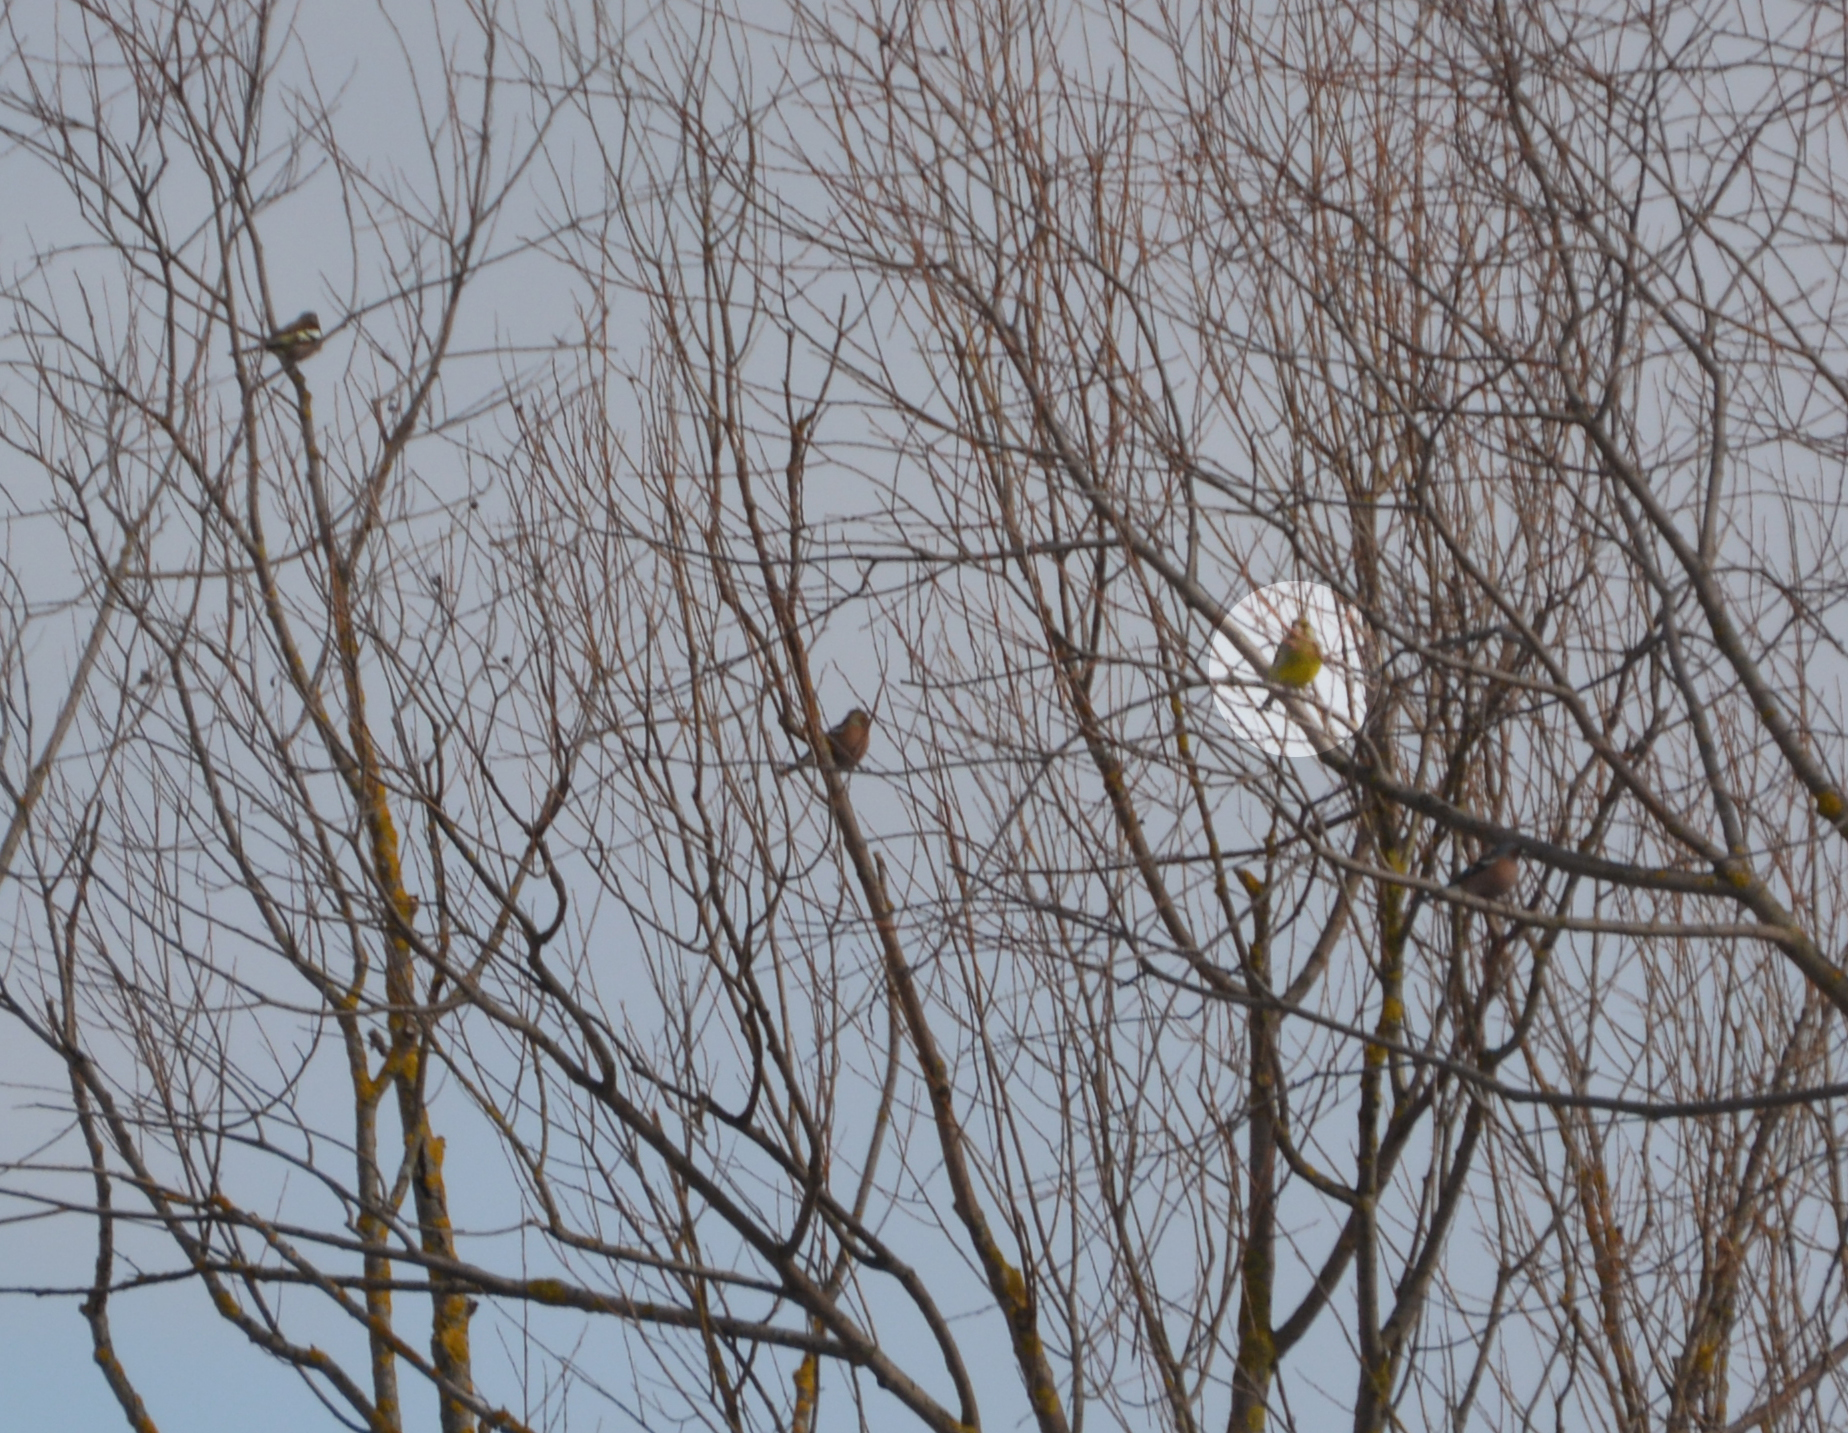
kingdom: Plantae
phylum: Tracheophyta
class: Liliopsida
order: Poales
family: Poaceae
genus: Chloris
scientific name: Chloris chloris
